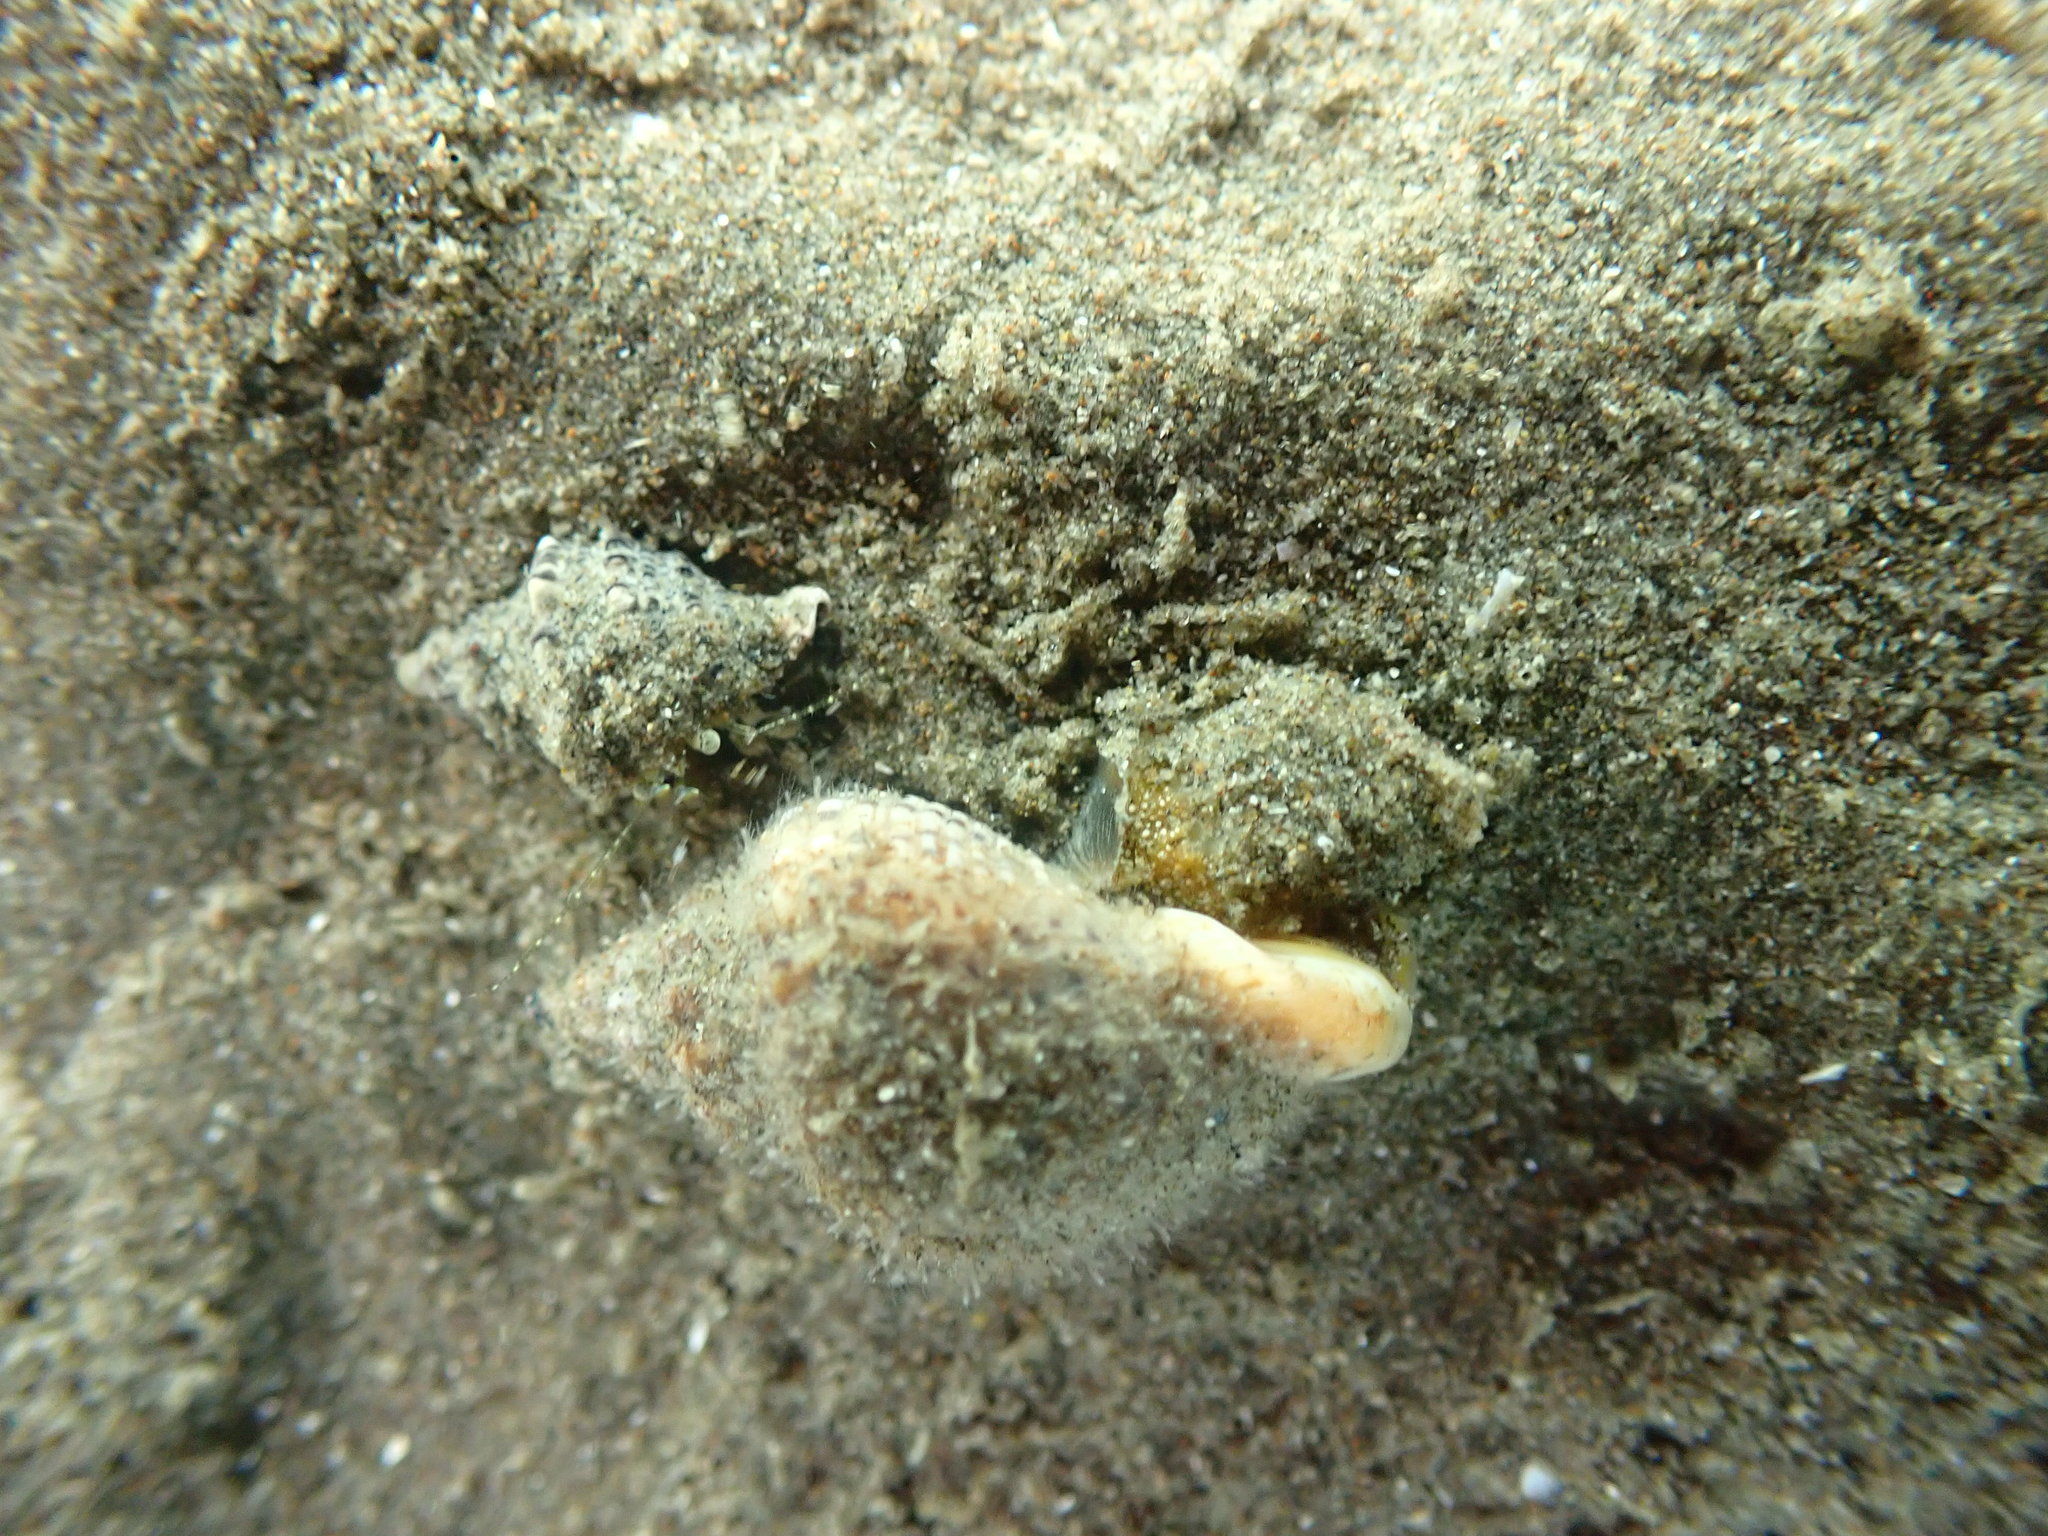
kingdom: Animalia
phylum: Mollusca
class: Gastropoda
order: Neogastropoda
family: Cominellidae
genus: Cominella
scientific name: Cominella adspersa
